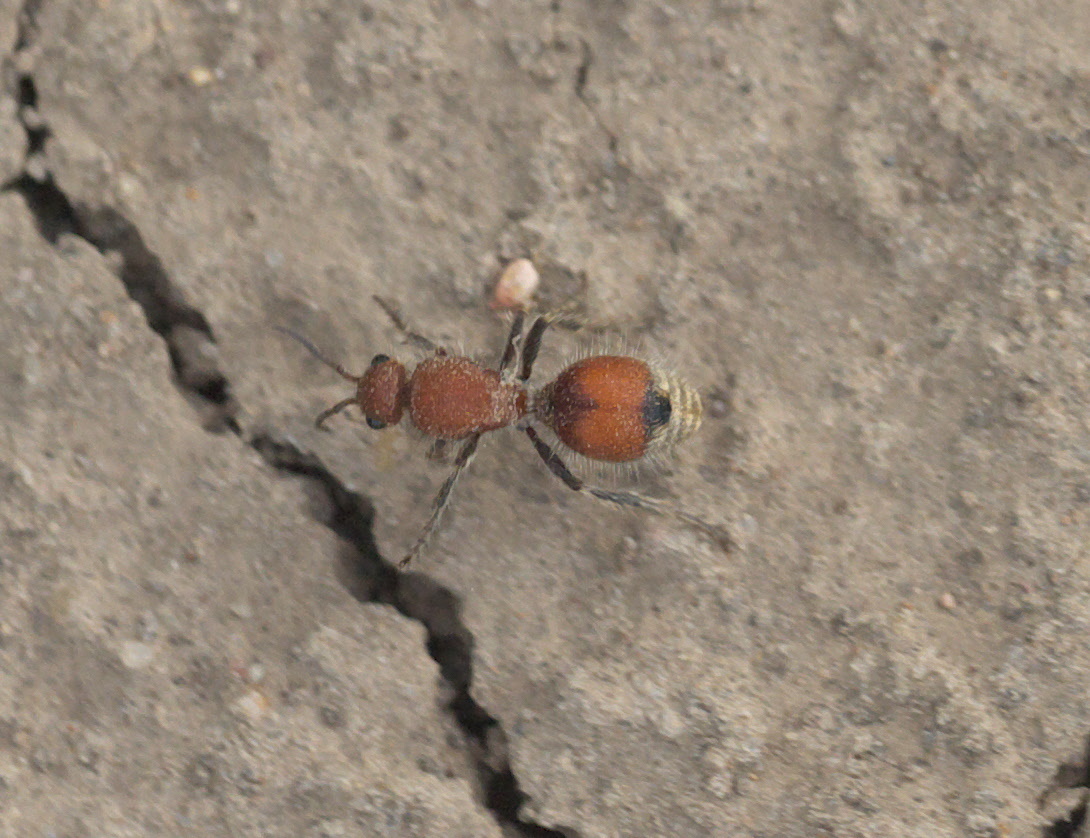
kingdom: Animalia
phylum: Arthropoda
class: Insecta
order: Hymenoptera
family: Mutillidae
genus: Dasymutilla
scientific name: Dasymutilla
